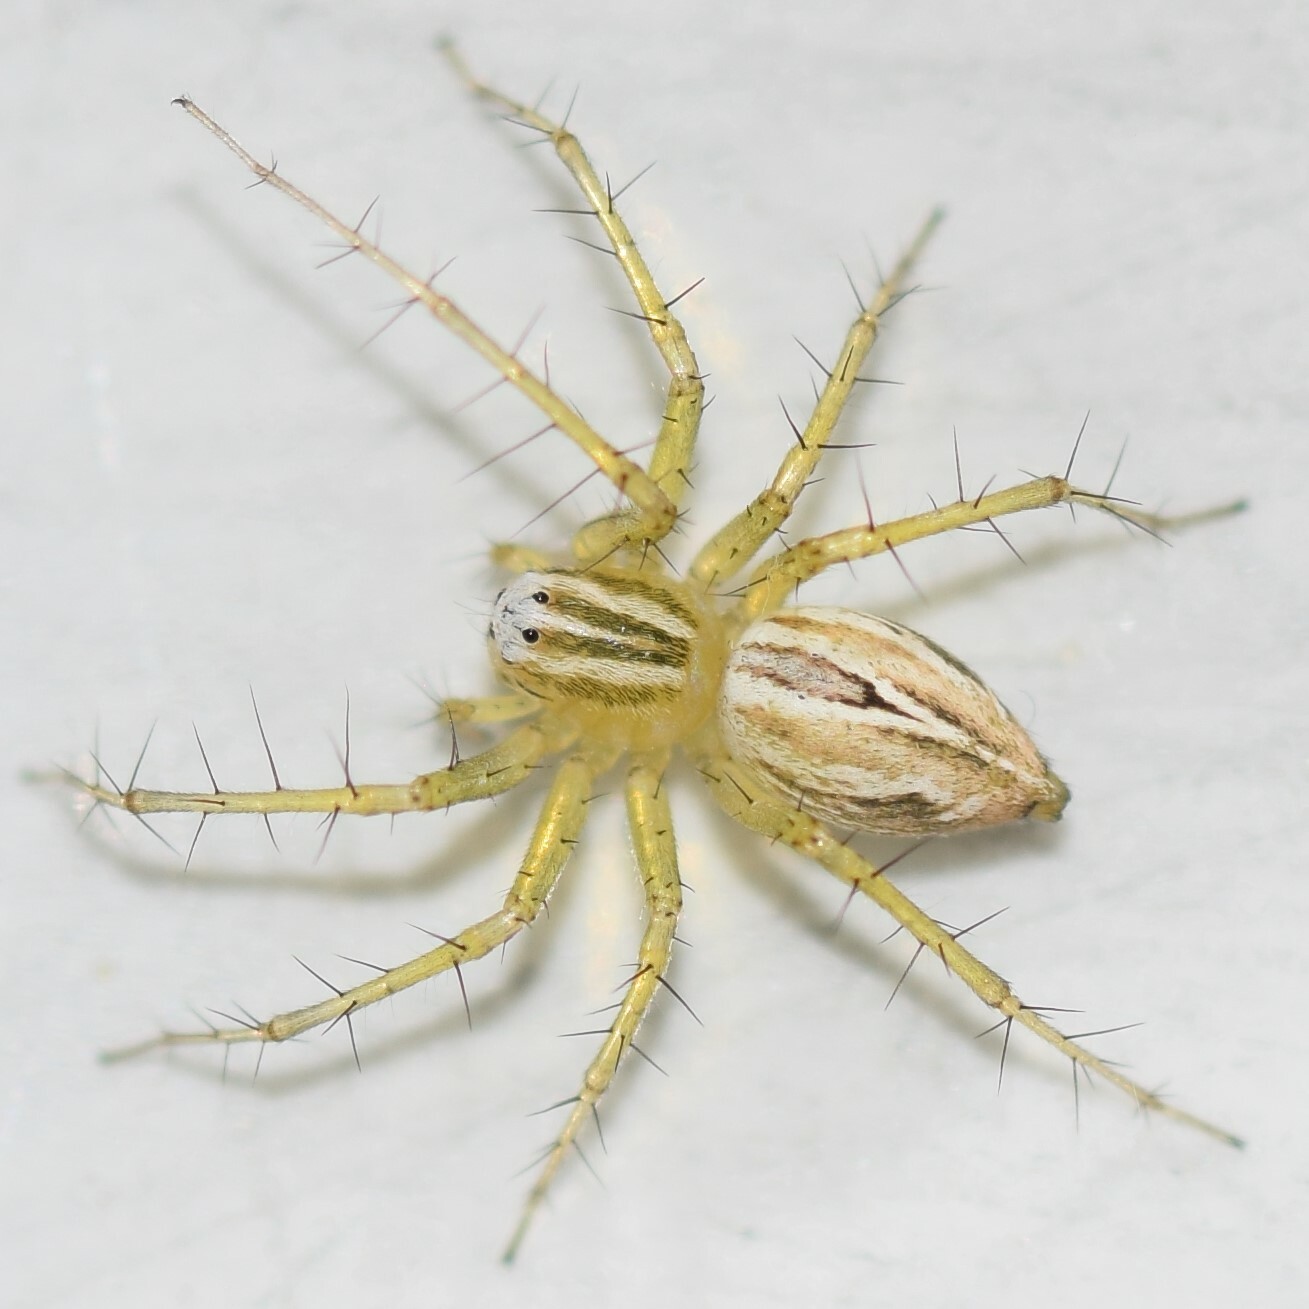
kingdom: Animalia
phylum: Arthropoda
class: Arachnida
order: Araneae
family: Oxyopidae
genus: Oxyopes
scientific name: Oxyopes salticus
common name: Lynx spiders
